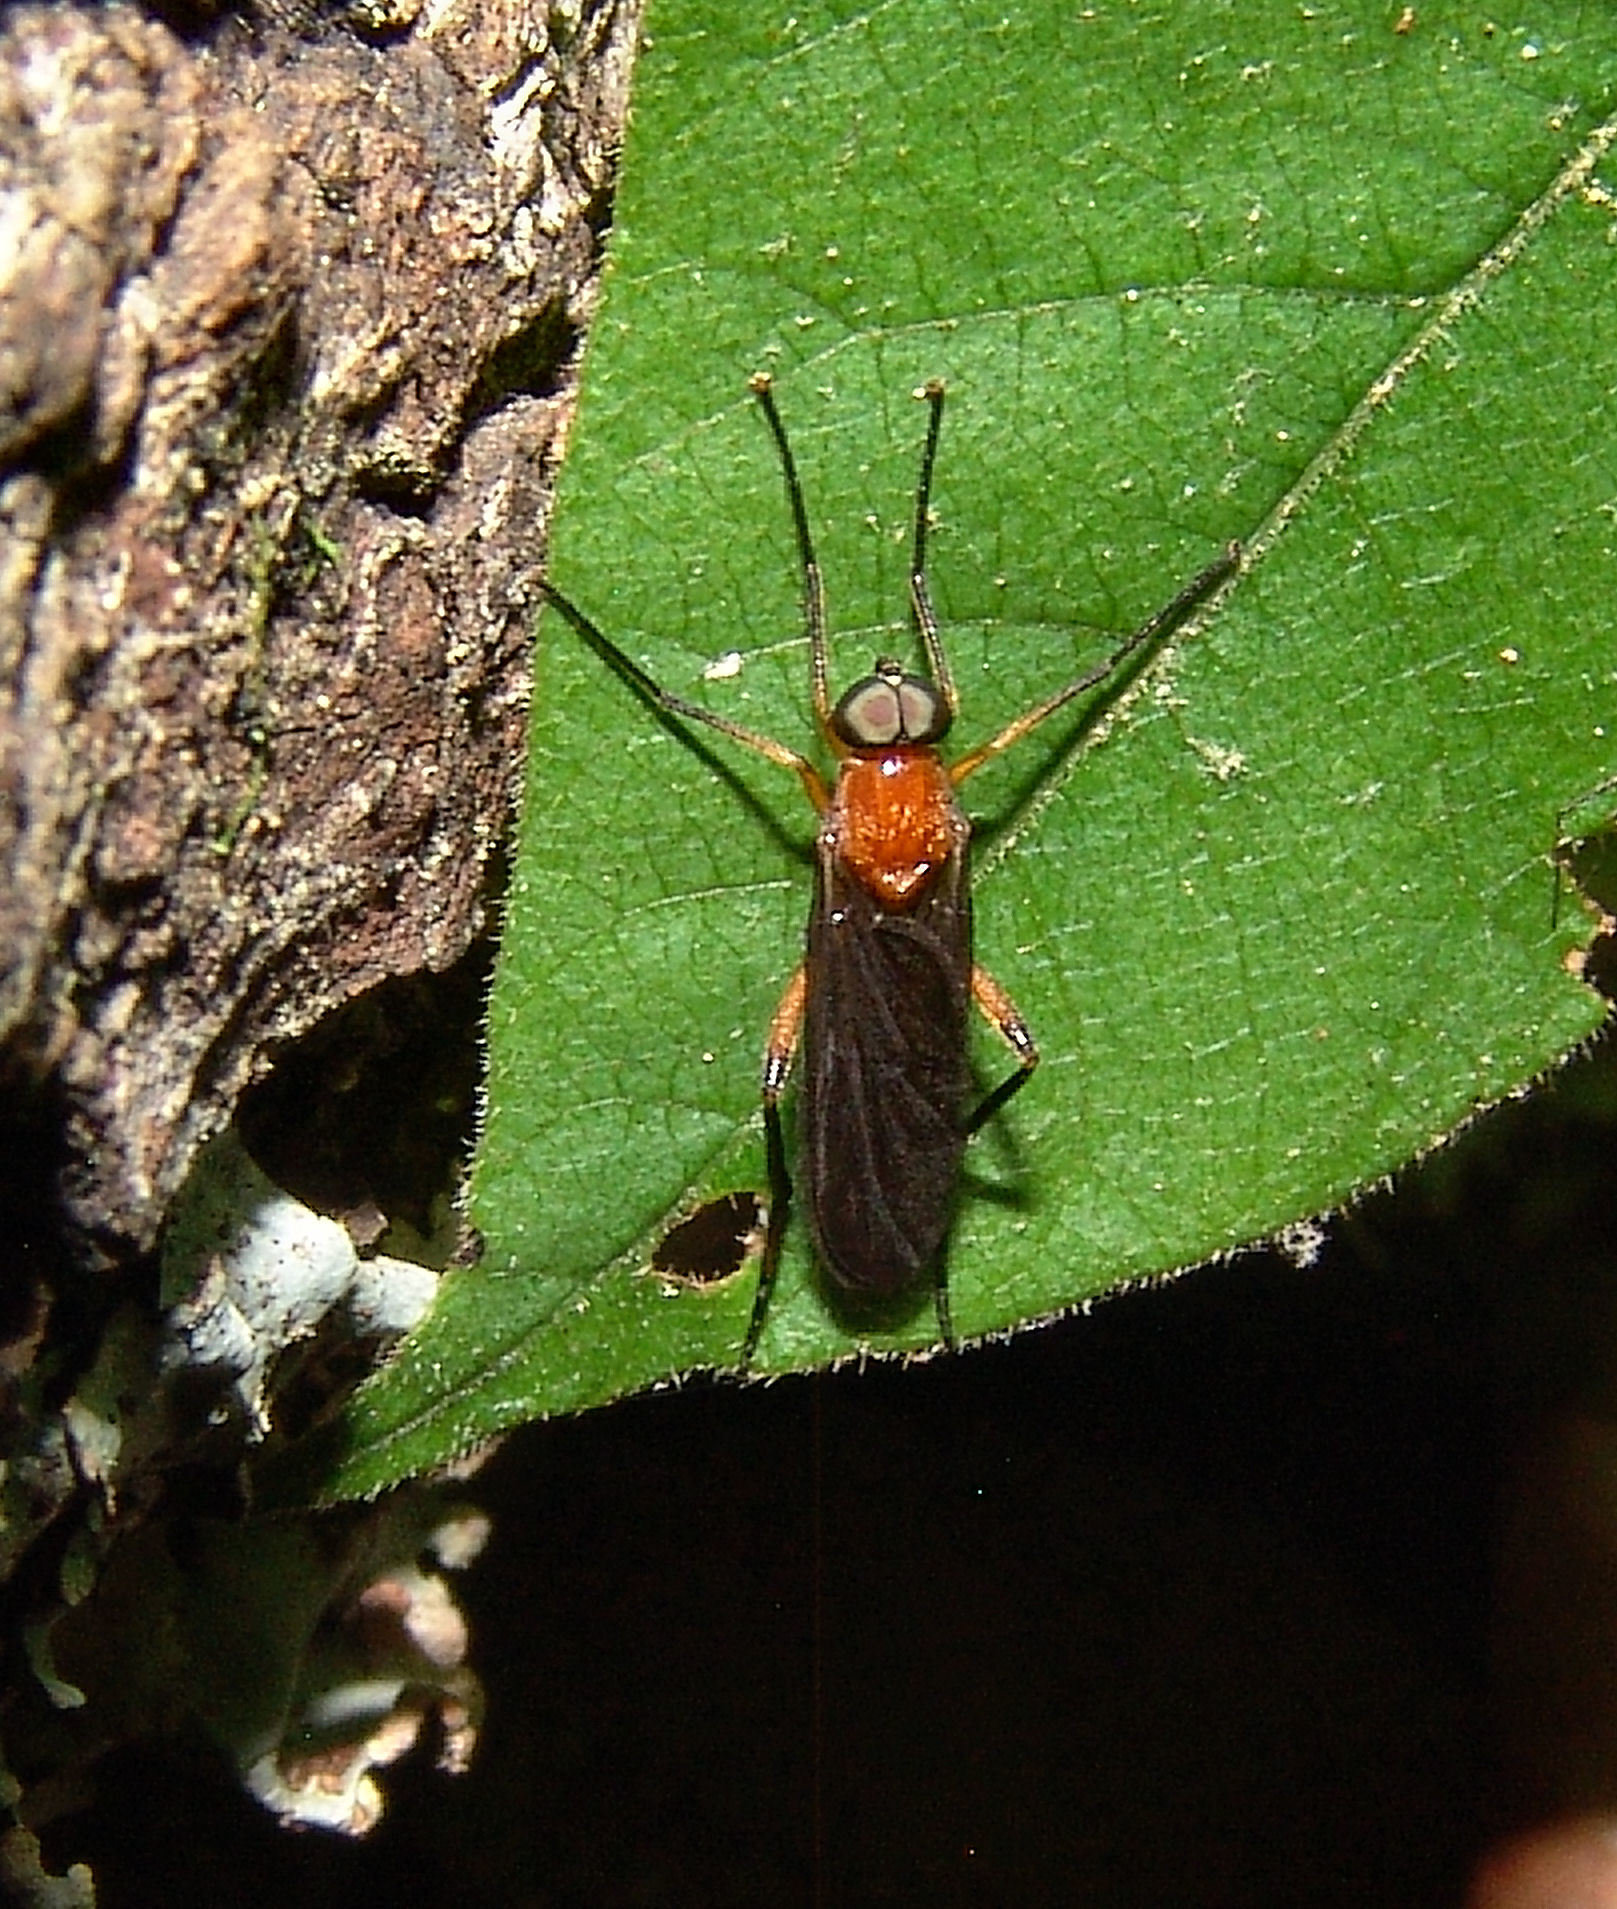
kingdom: Animalia
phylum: Arthropoda
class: Insecta
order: Diptera
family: Xylophagidae
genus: Dialysis
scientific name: Dialysis fasciventris
